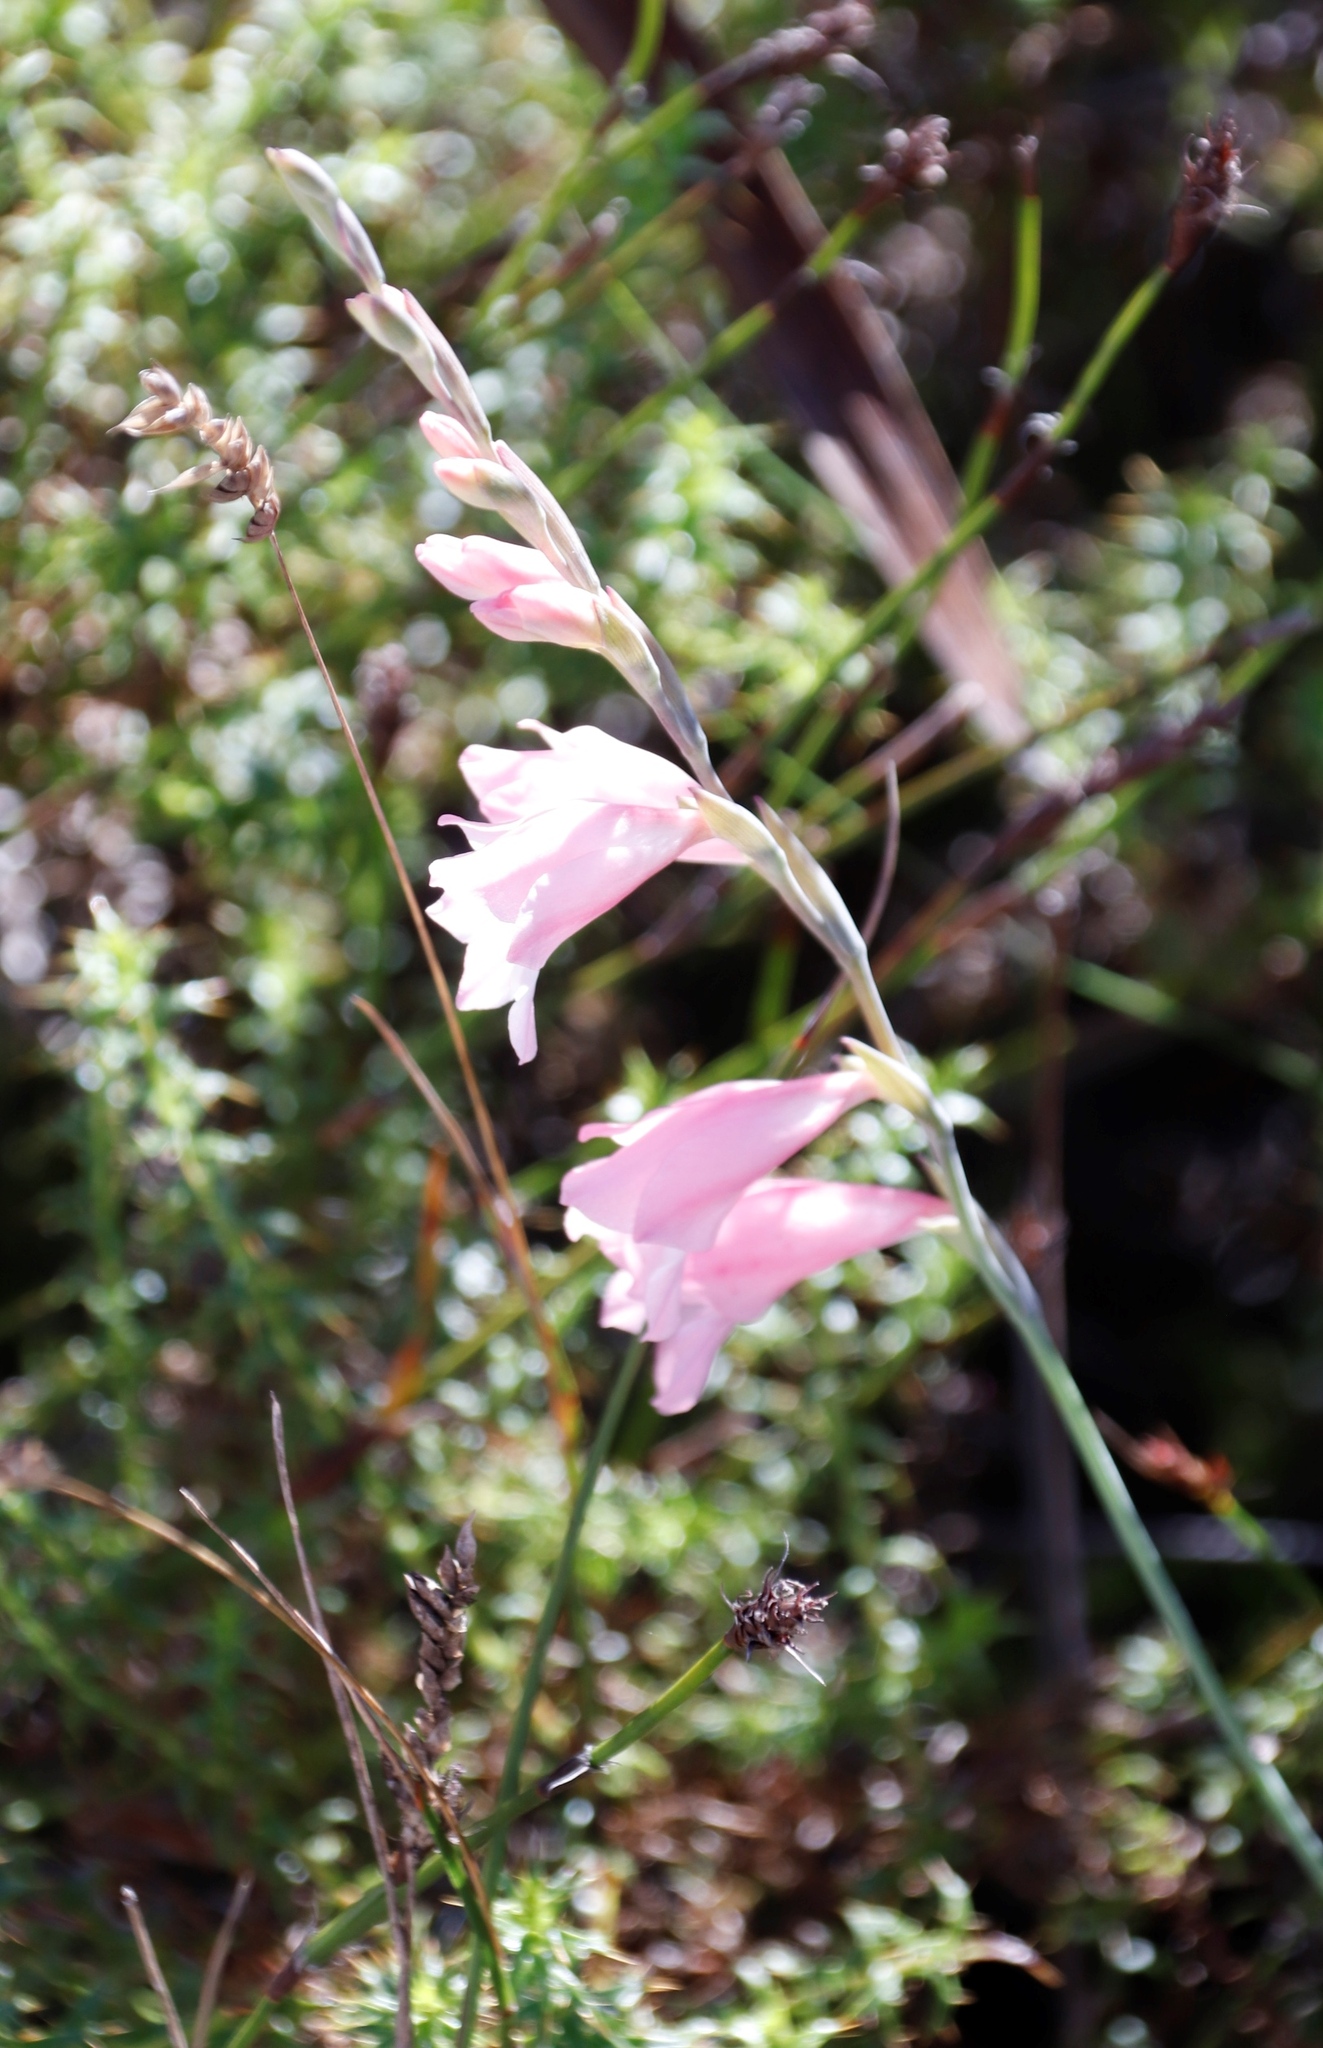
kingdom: Plantae
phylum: Tracheophyta
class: Liliopsida
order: Asparagales
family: Iridaceae
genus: Gladiolus
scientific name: Gladiolus brevifolius
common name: March pypie
